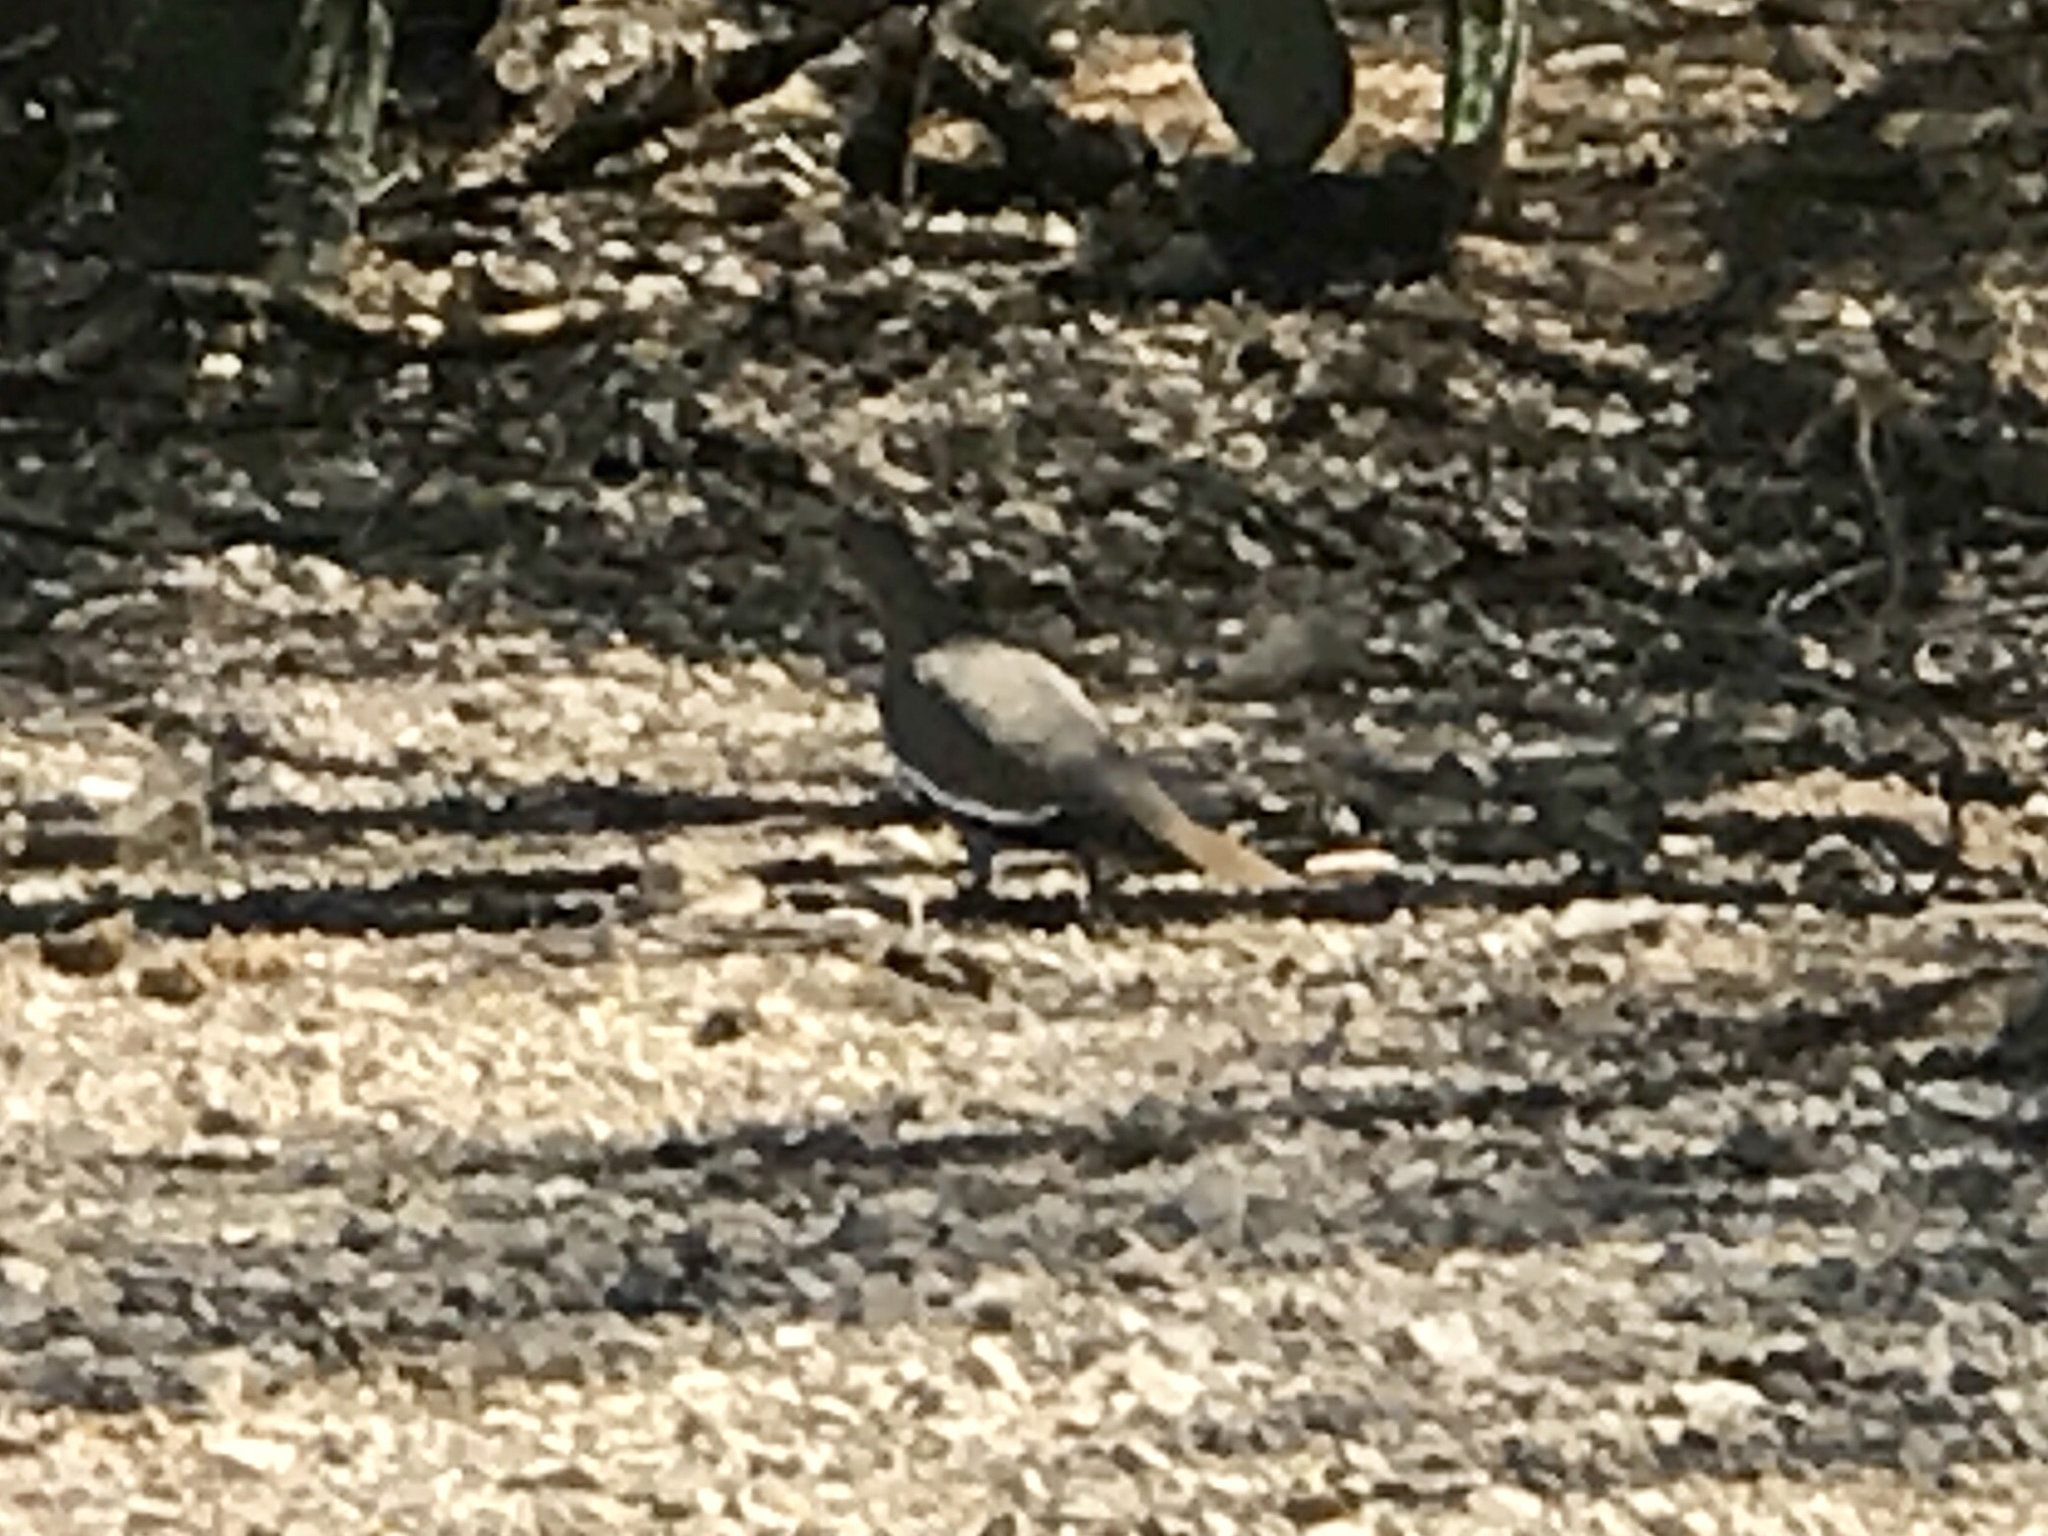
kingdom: Animalia
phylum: Chordata
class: Aves
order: Columbiformes
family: Columbidae
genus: Zenaida
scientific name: Zenaida asiatica
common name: White-winged dove
